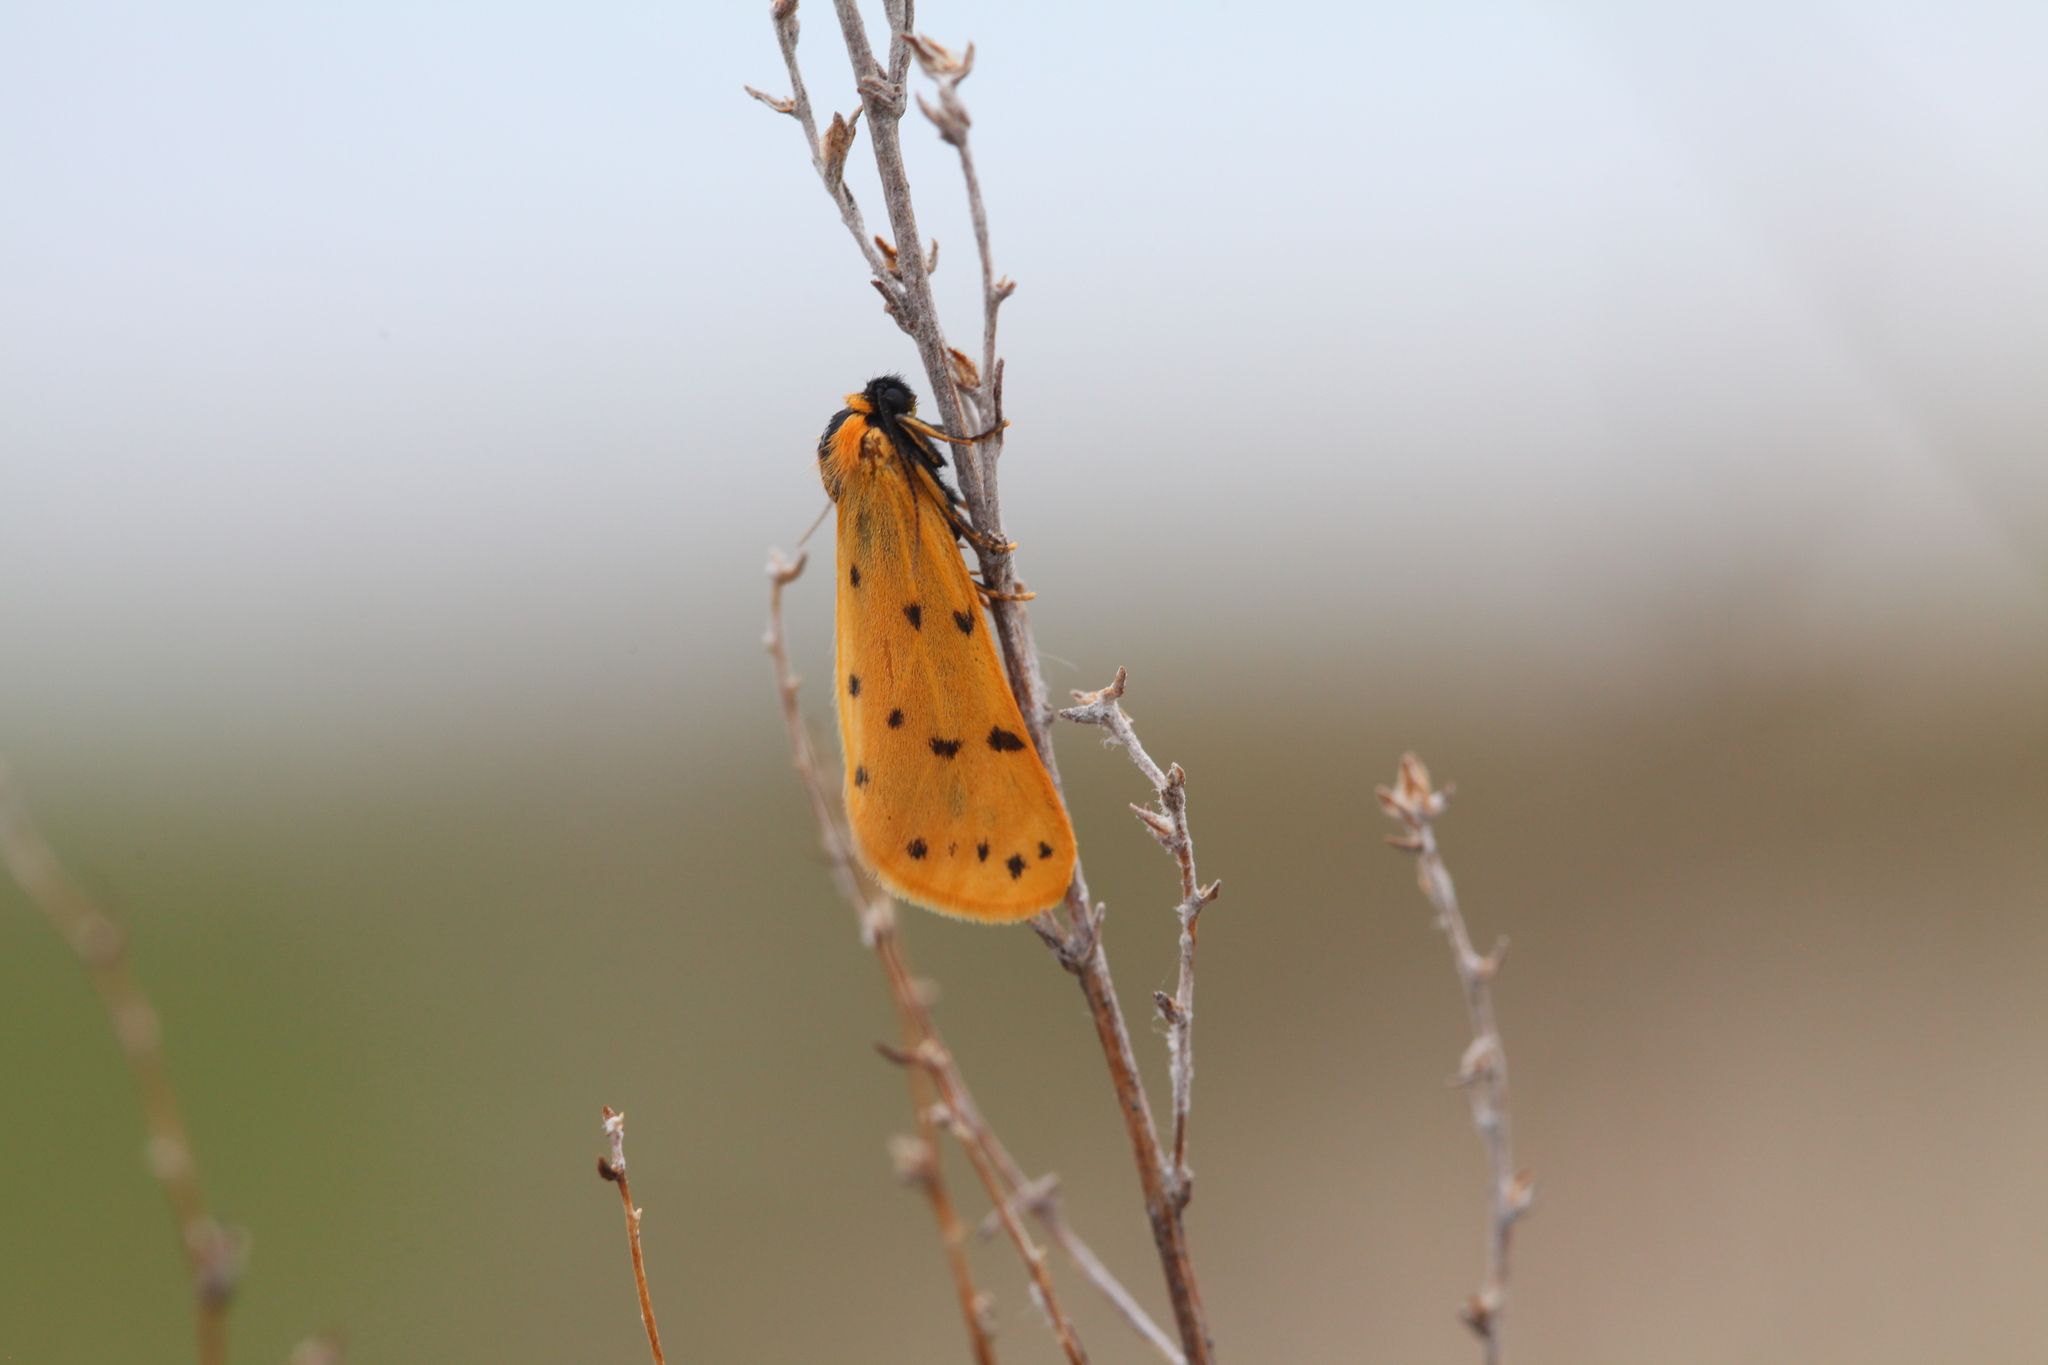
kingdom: Animalia
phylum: Arthropoda
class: Insecta
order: Lepidoptera
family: Erebidae
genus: Setina
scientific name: Setina roscida
